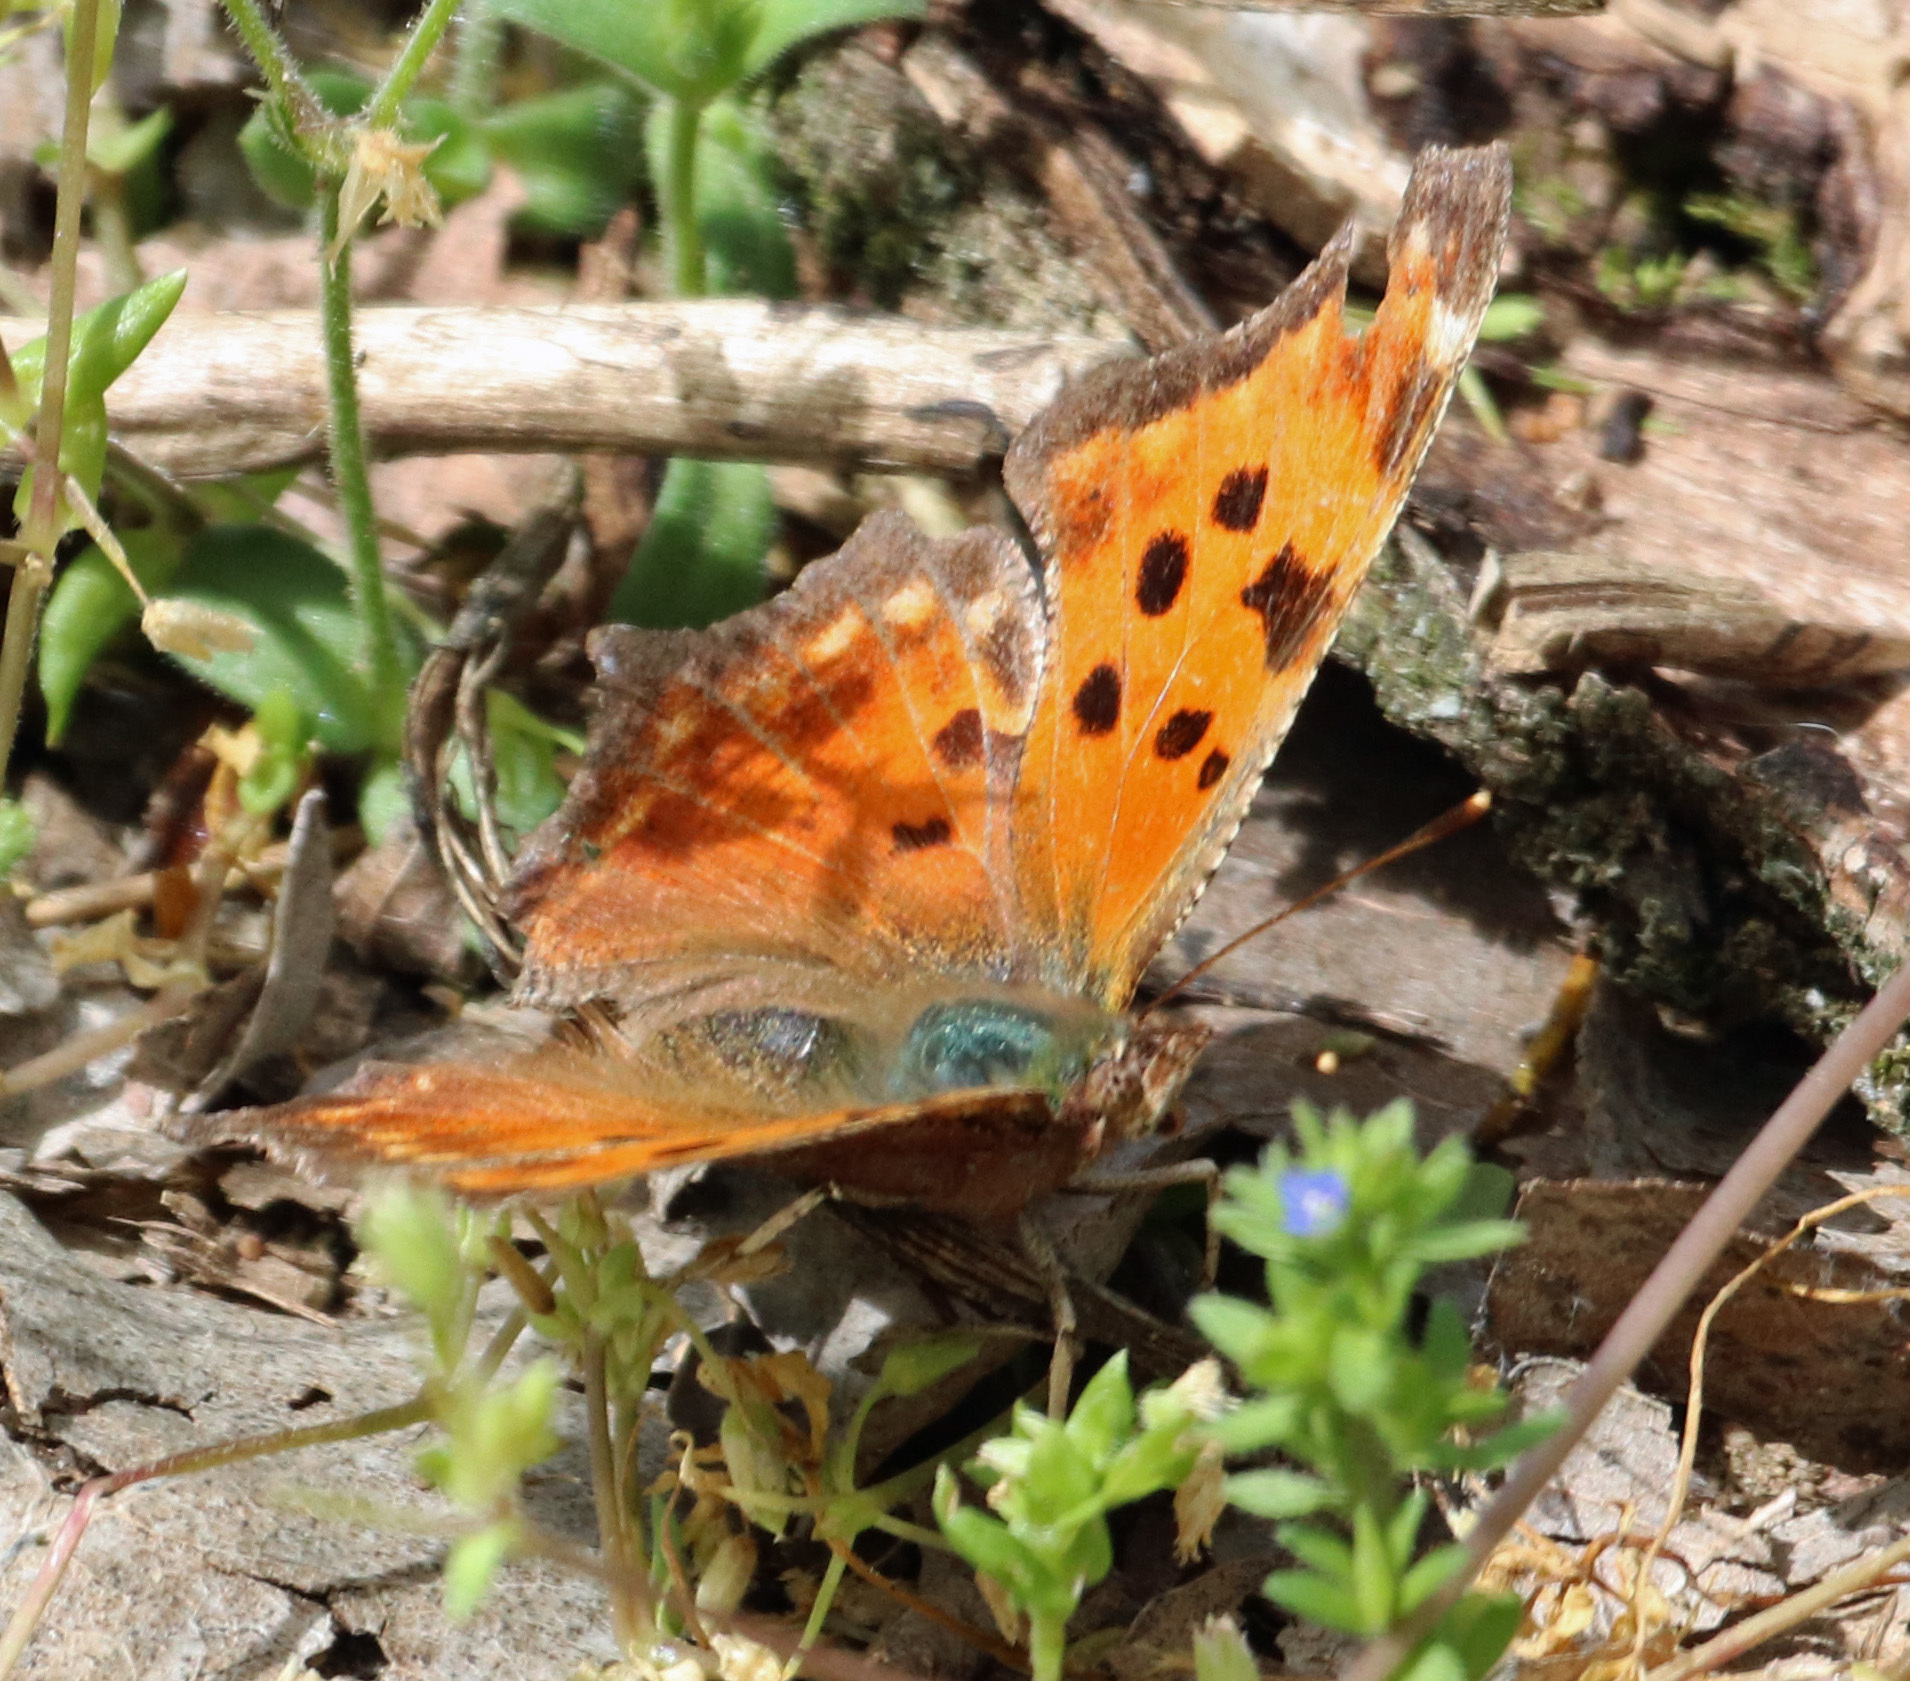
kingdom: Animalia
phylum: Arthropoda
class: Insecta
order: Lepidoptera
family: Nymphalidae
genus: Polygonia
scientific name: Polygonia comma
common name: Eastern comma
